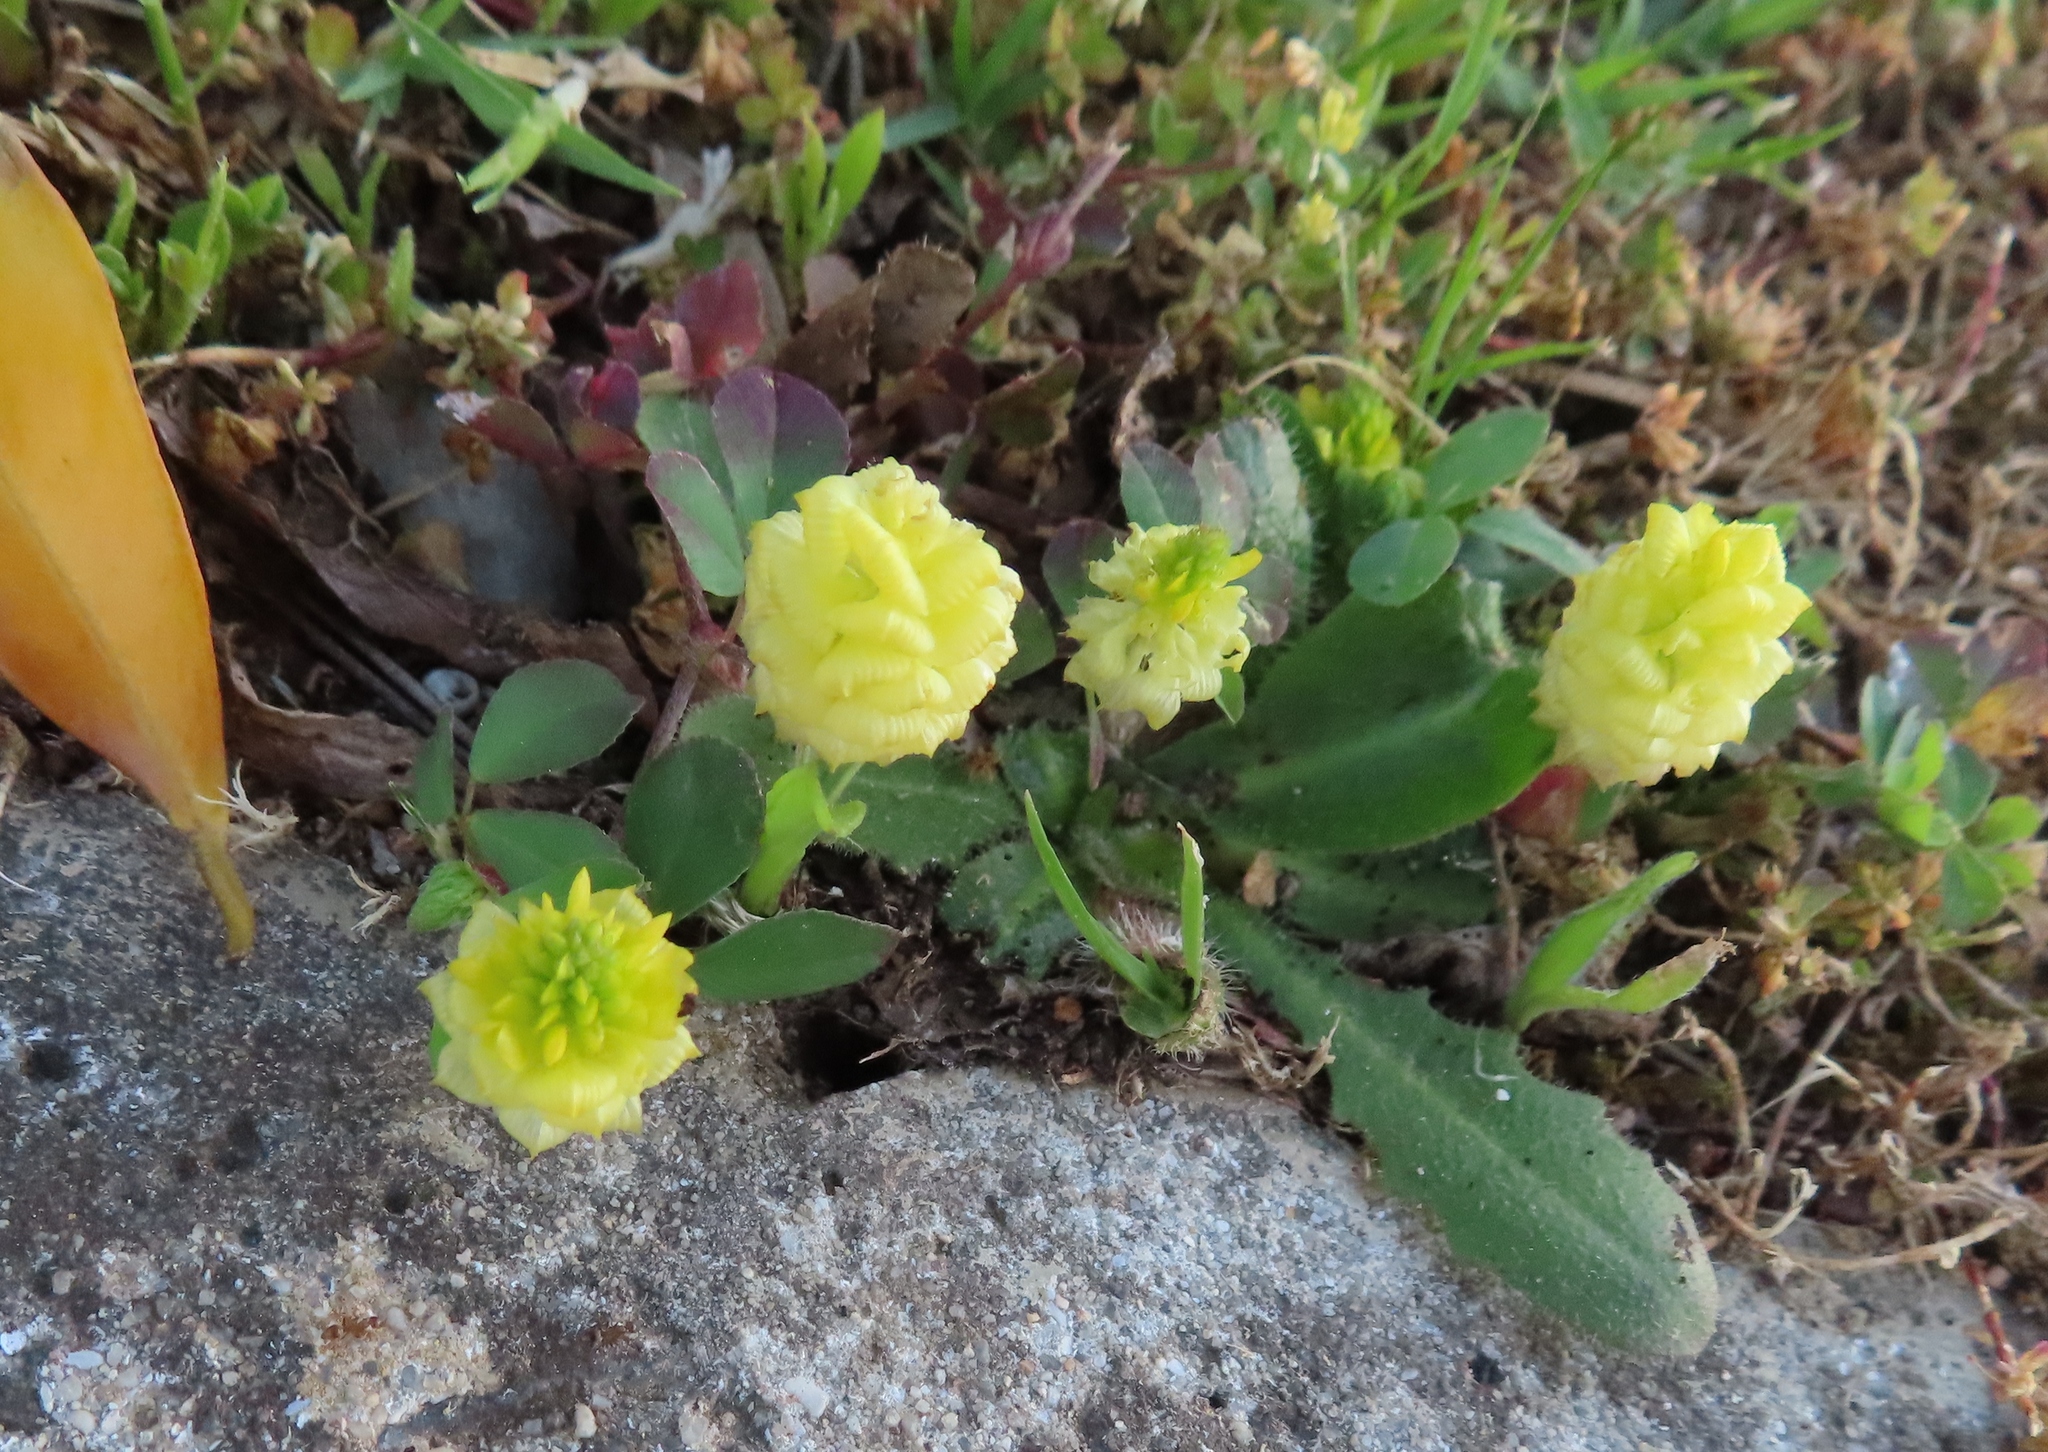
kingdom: Plantae
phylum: Tracheophyta
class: Magnoliopsida
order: Fabales
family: Fabaceae
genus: Trifolium
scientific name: Trifolium campestre
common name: Field clover
